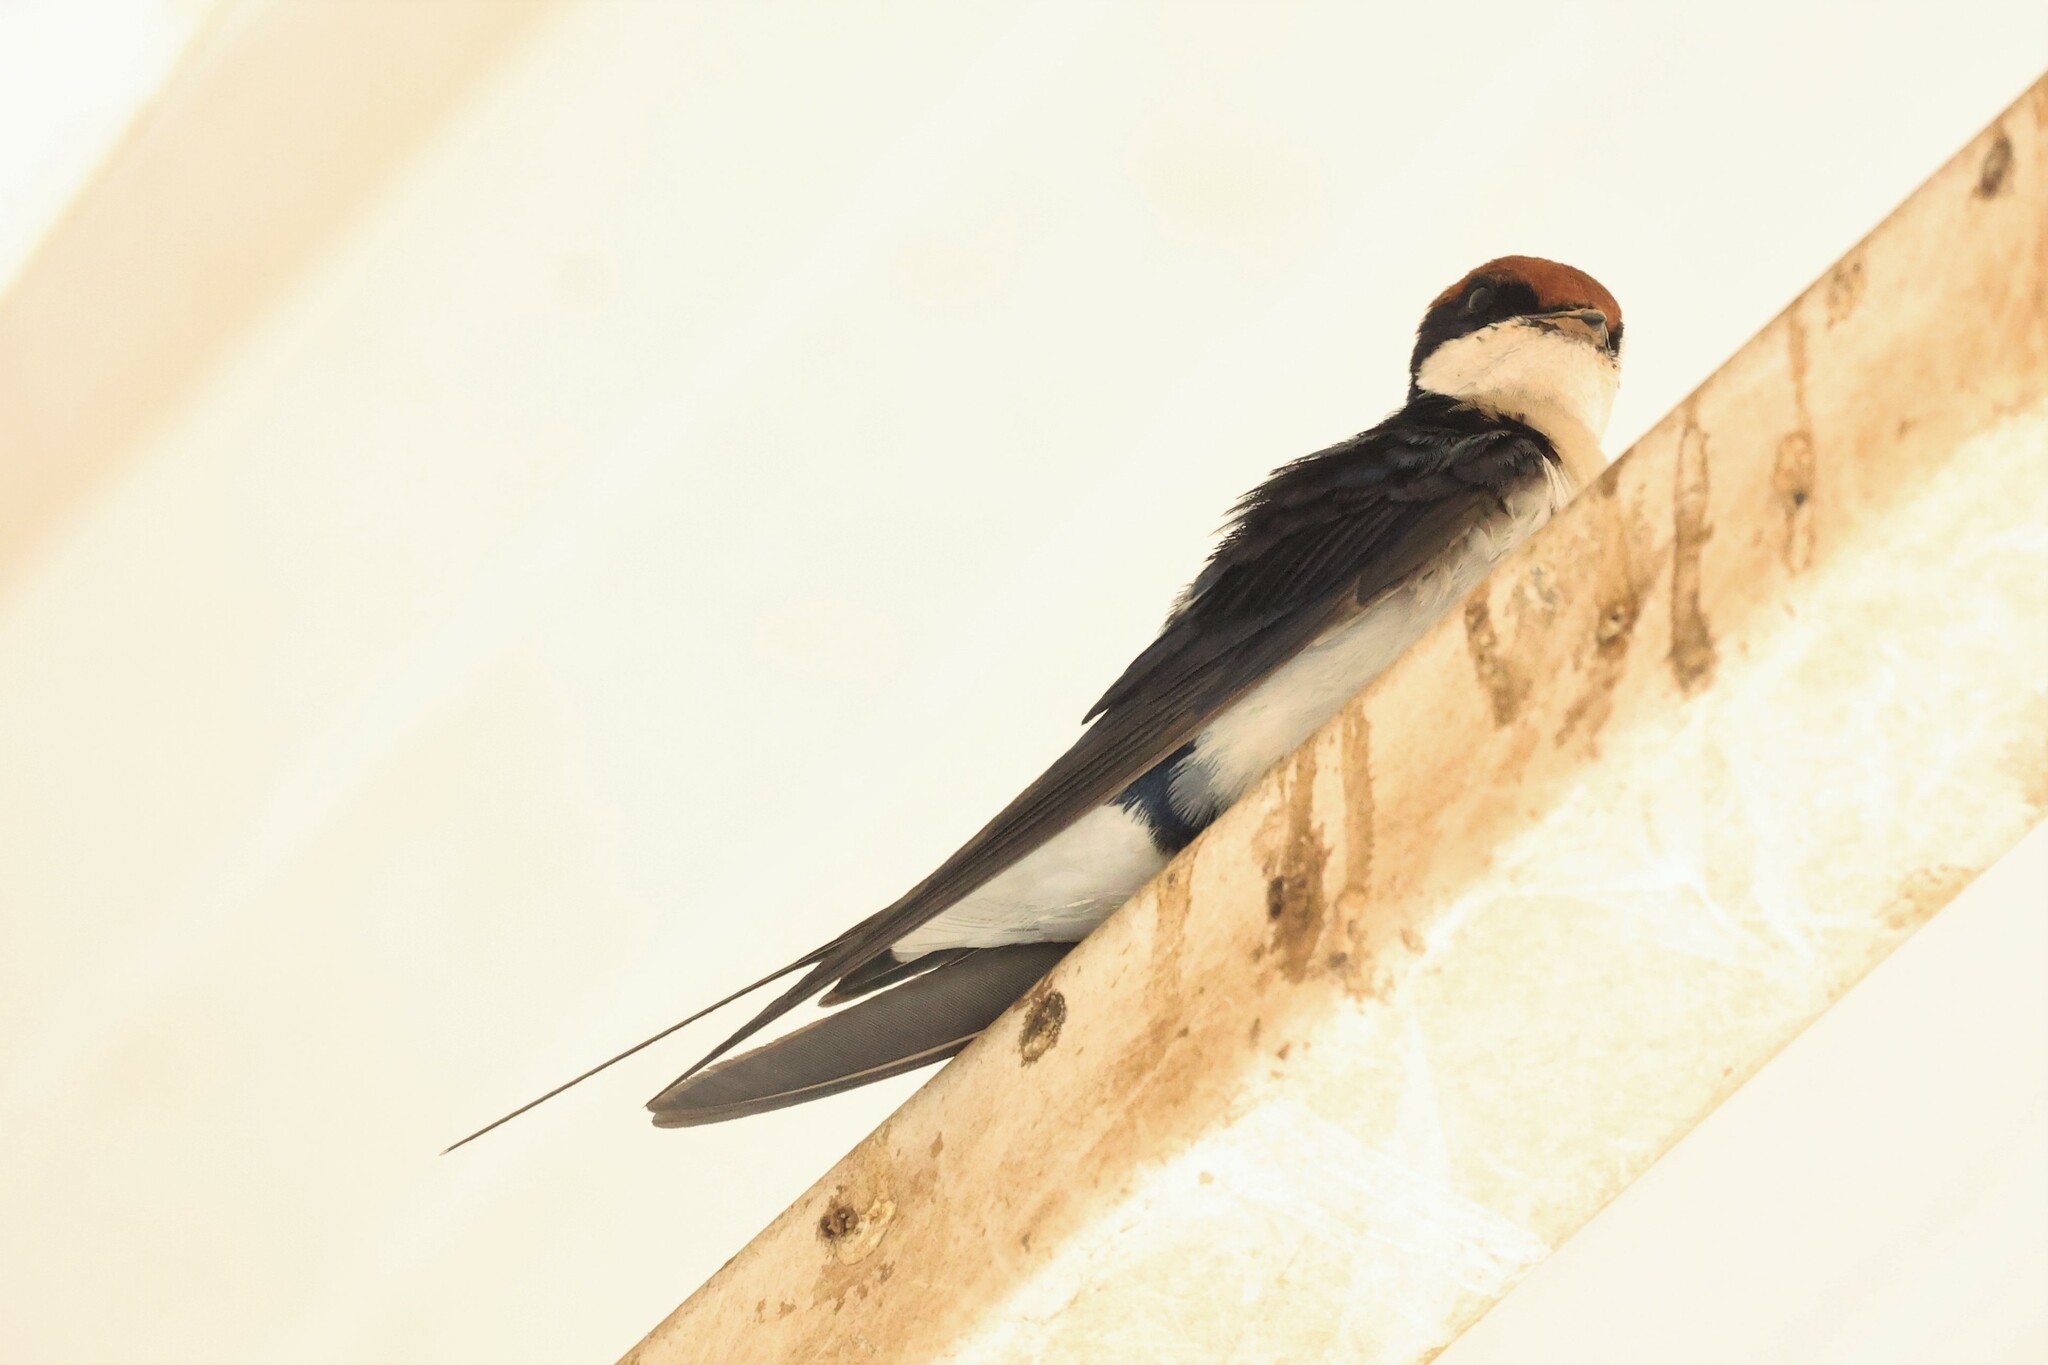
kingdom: Animalia
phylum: Chordata
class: Aves
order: Passeriformes
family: Hirundinidae
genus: Hirundo
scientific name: Hirundo smithii
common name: Wire-tailed swallow
